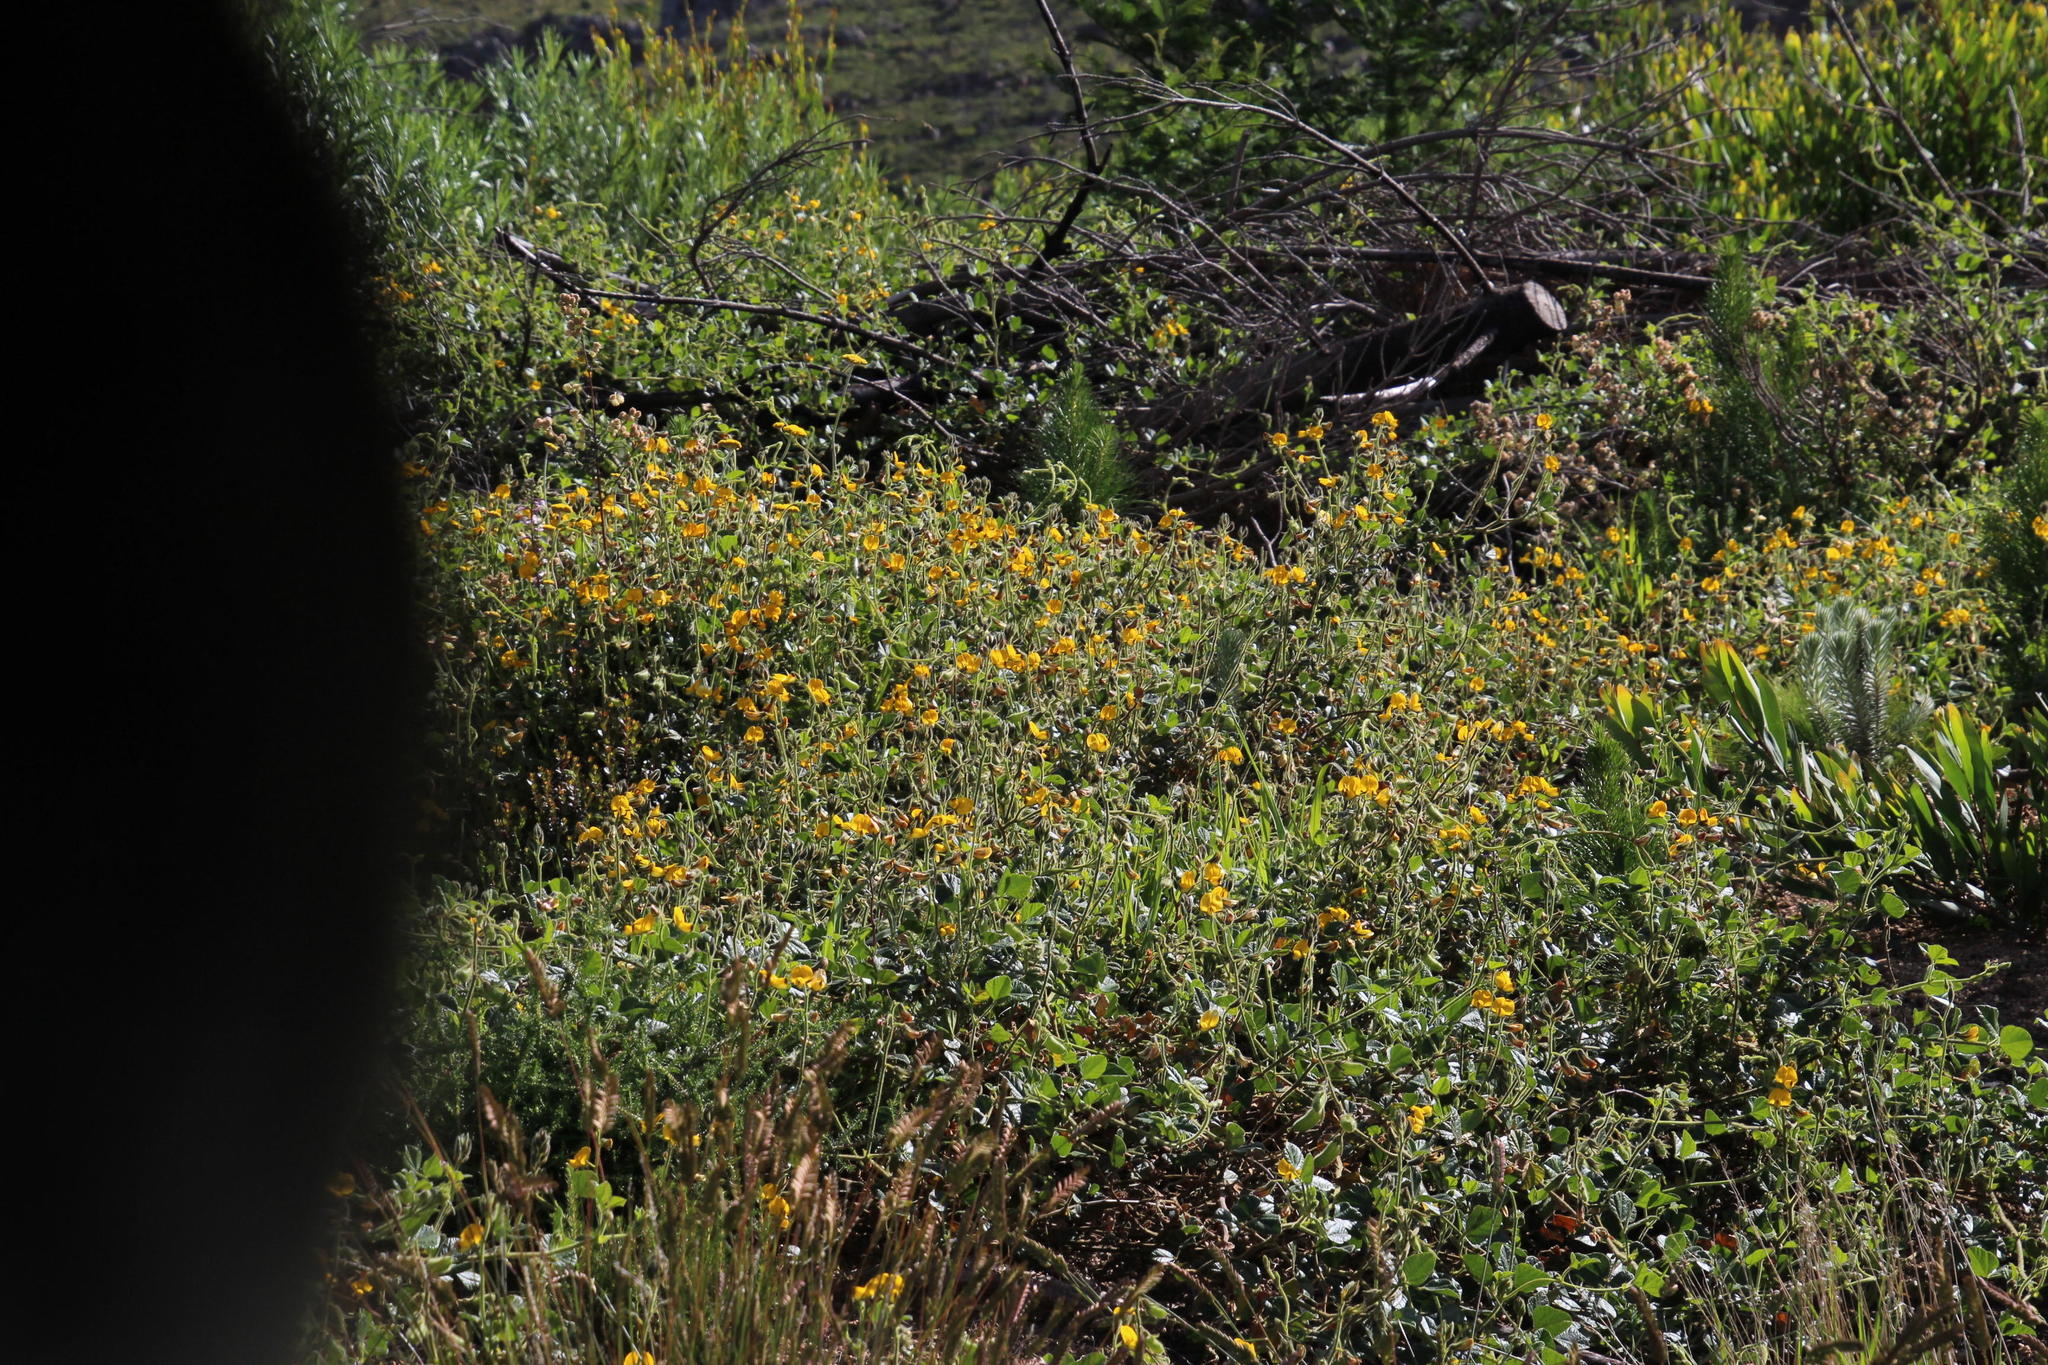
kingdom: Plantae
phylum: Tracheophyta
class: Magnoliopsida
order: Fabales
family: Fabaceae
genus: Bolusafra
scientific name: Bolusafra bituminosa
